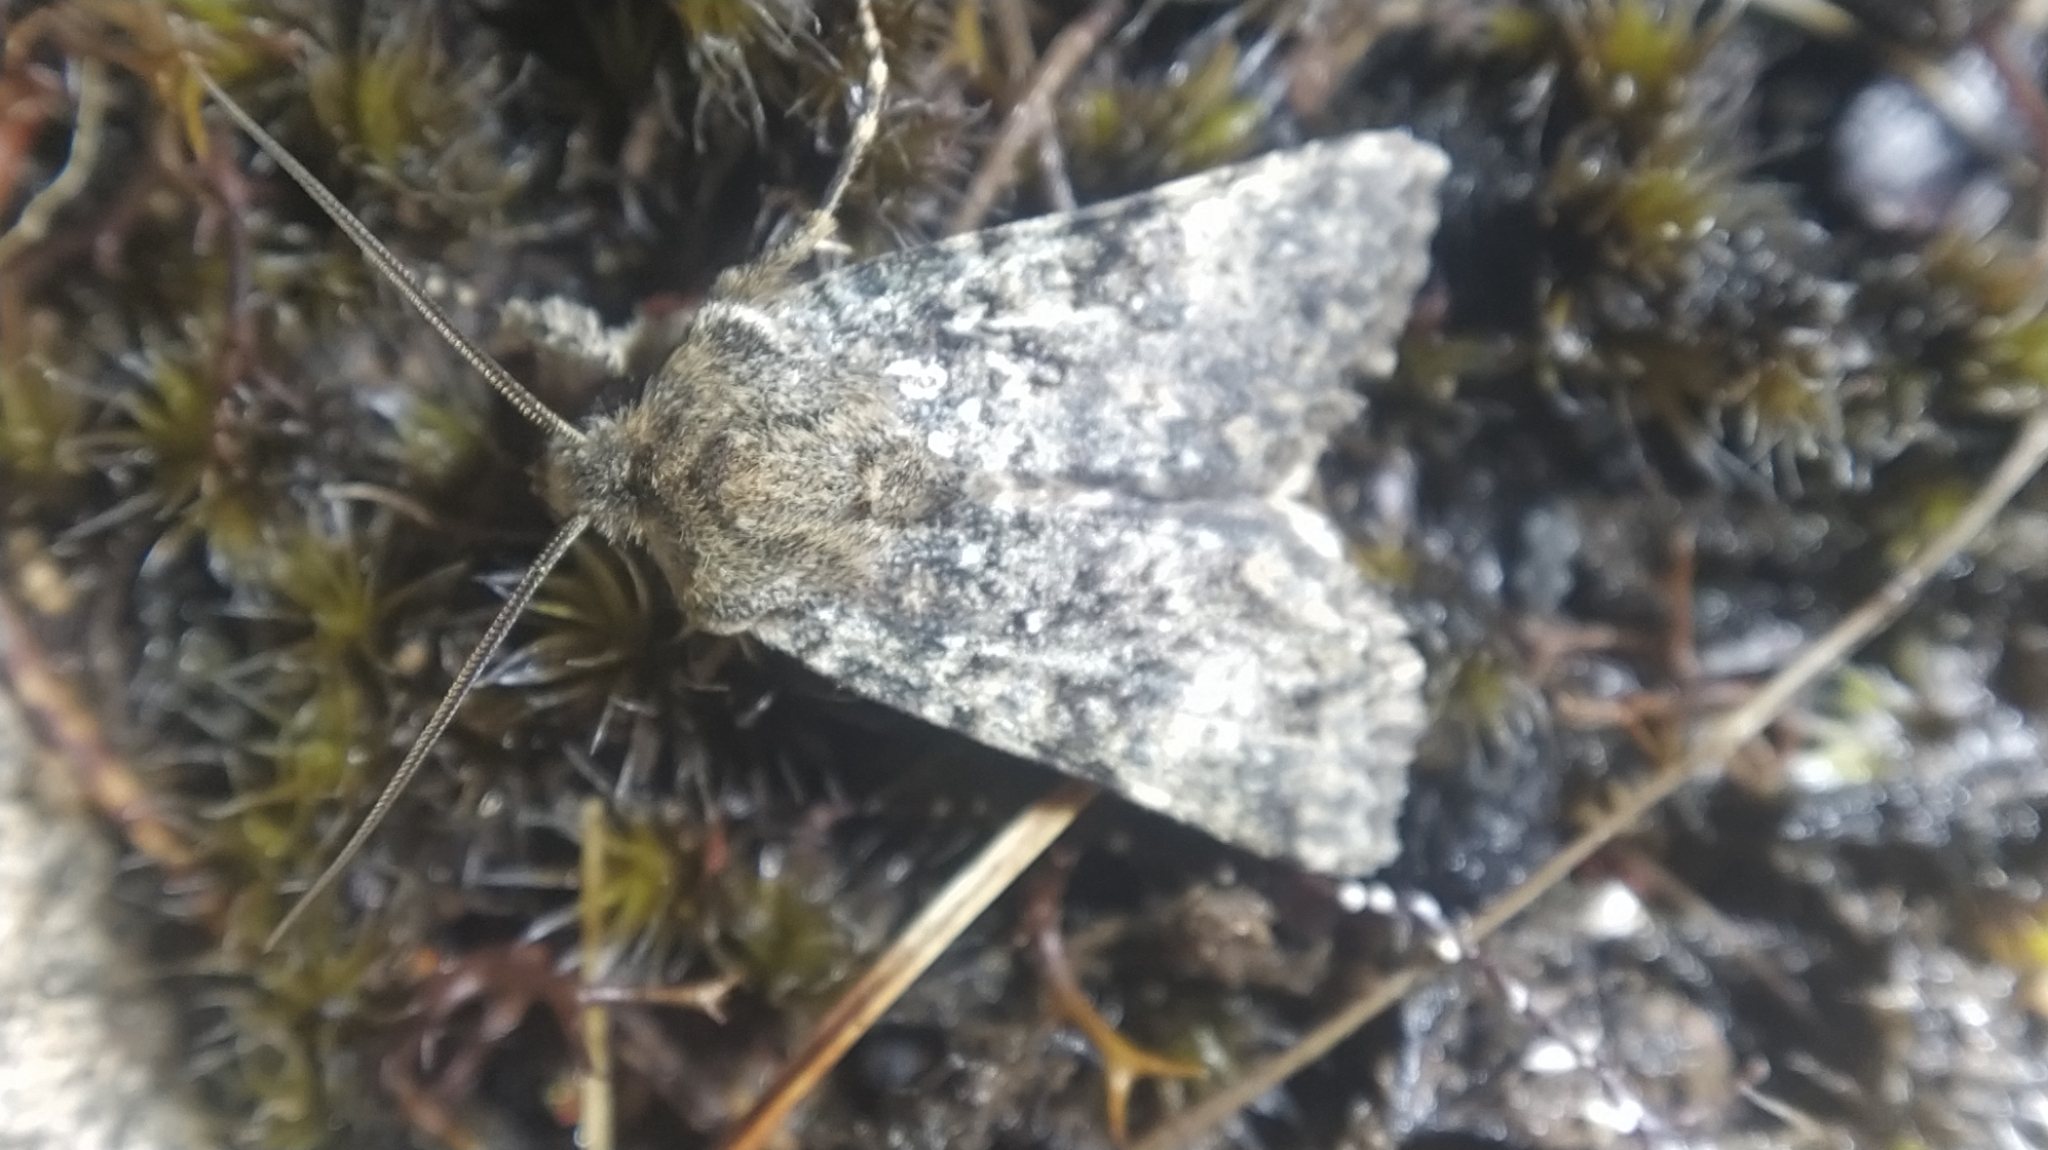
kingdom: Animalia
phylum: Arthropoda
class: Insecta
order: Lepidoptera
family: Noctuidae
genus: Ichneutica
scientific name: Ichneutica cuneata
